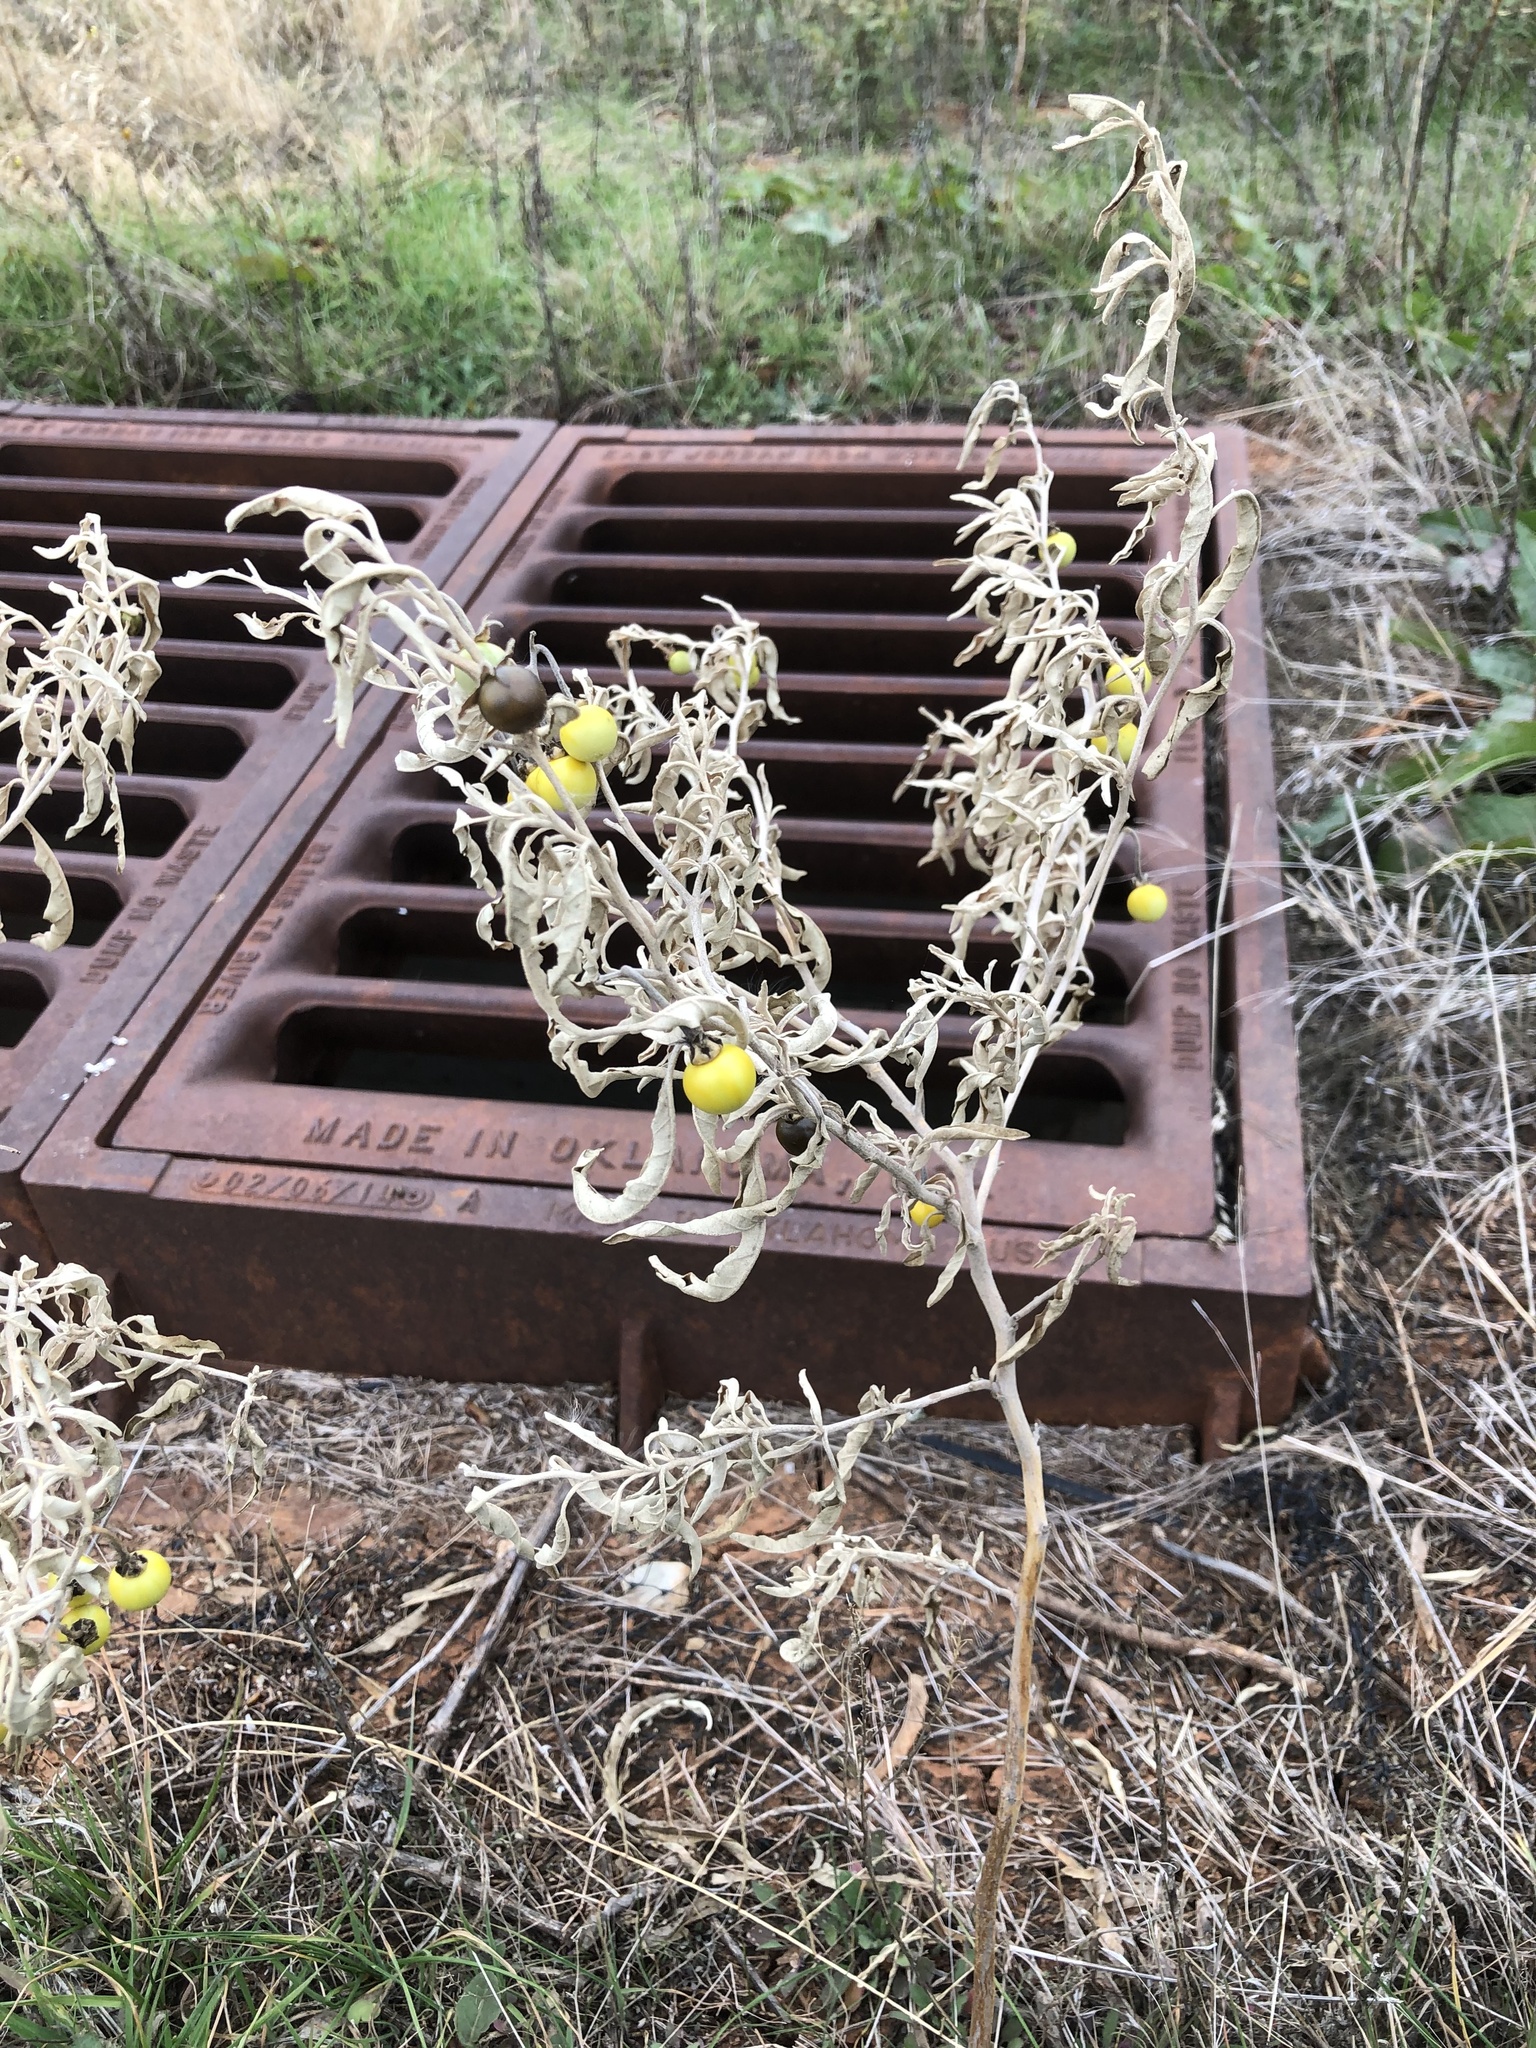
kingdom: Plantae
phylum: Tracheophyta
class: Magnoliopsida
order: Solanales
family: Solanaceae
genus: Solanum
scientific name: Solanum elaeagnifolium
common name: Silverleaf nightshade
